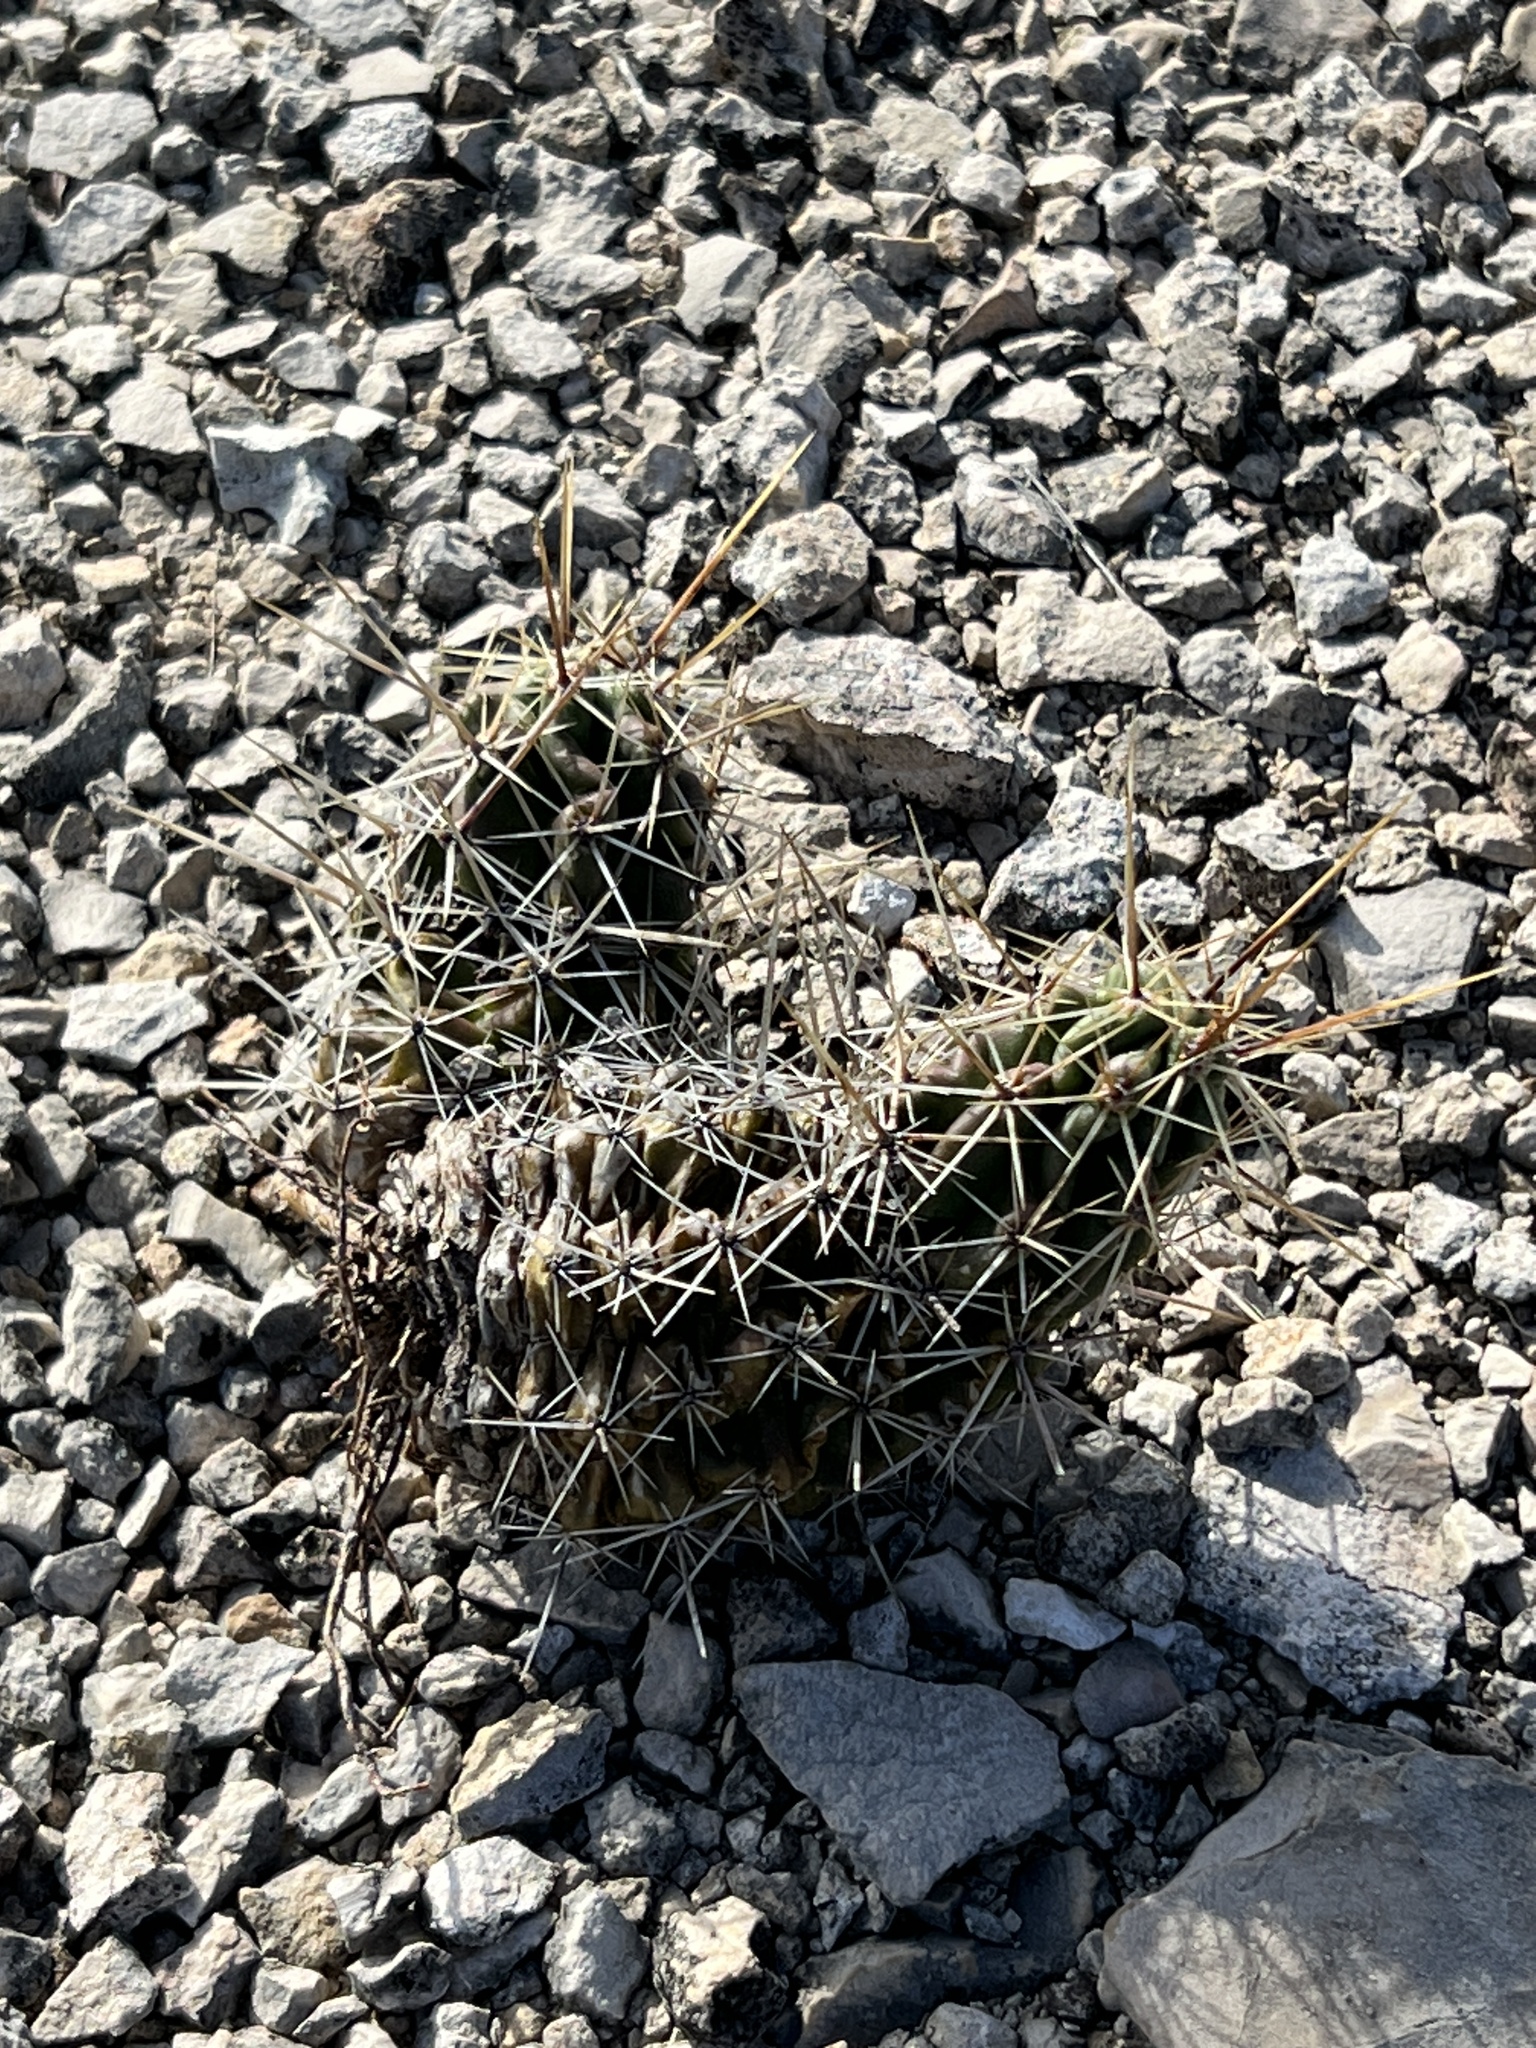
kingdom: Plantae
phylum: Tracheophyta
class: Magnoliopsida
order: Caryophyllales
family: Cactaceae
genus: Echinocereus
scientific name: Echinocereus enneacanthus
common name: Pitaya
